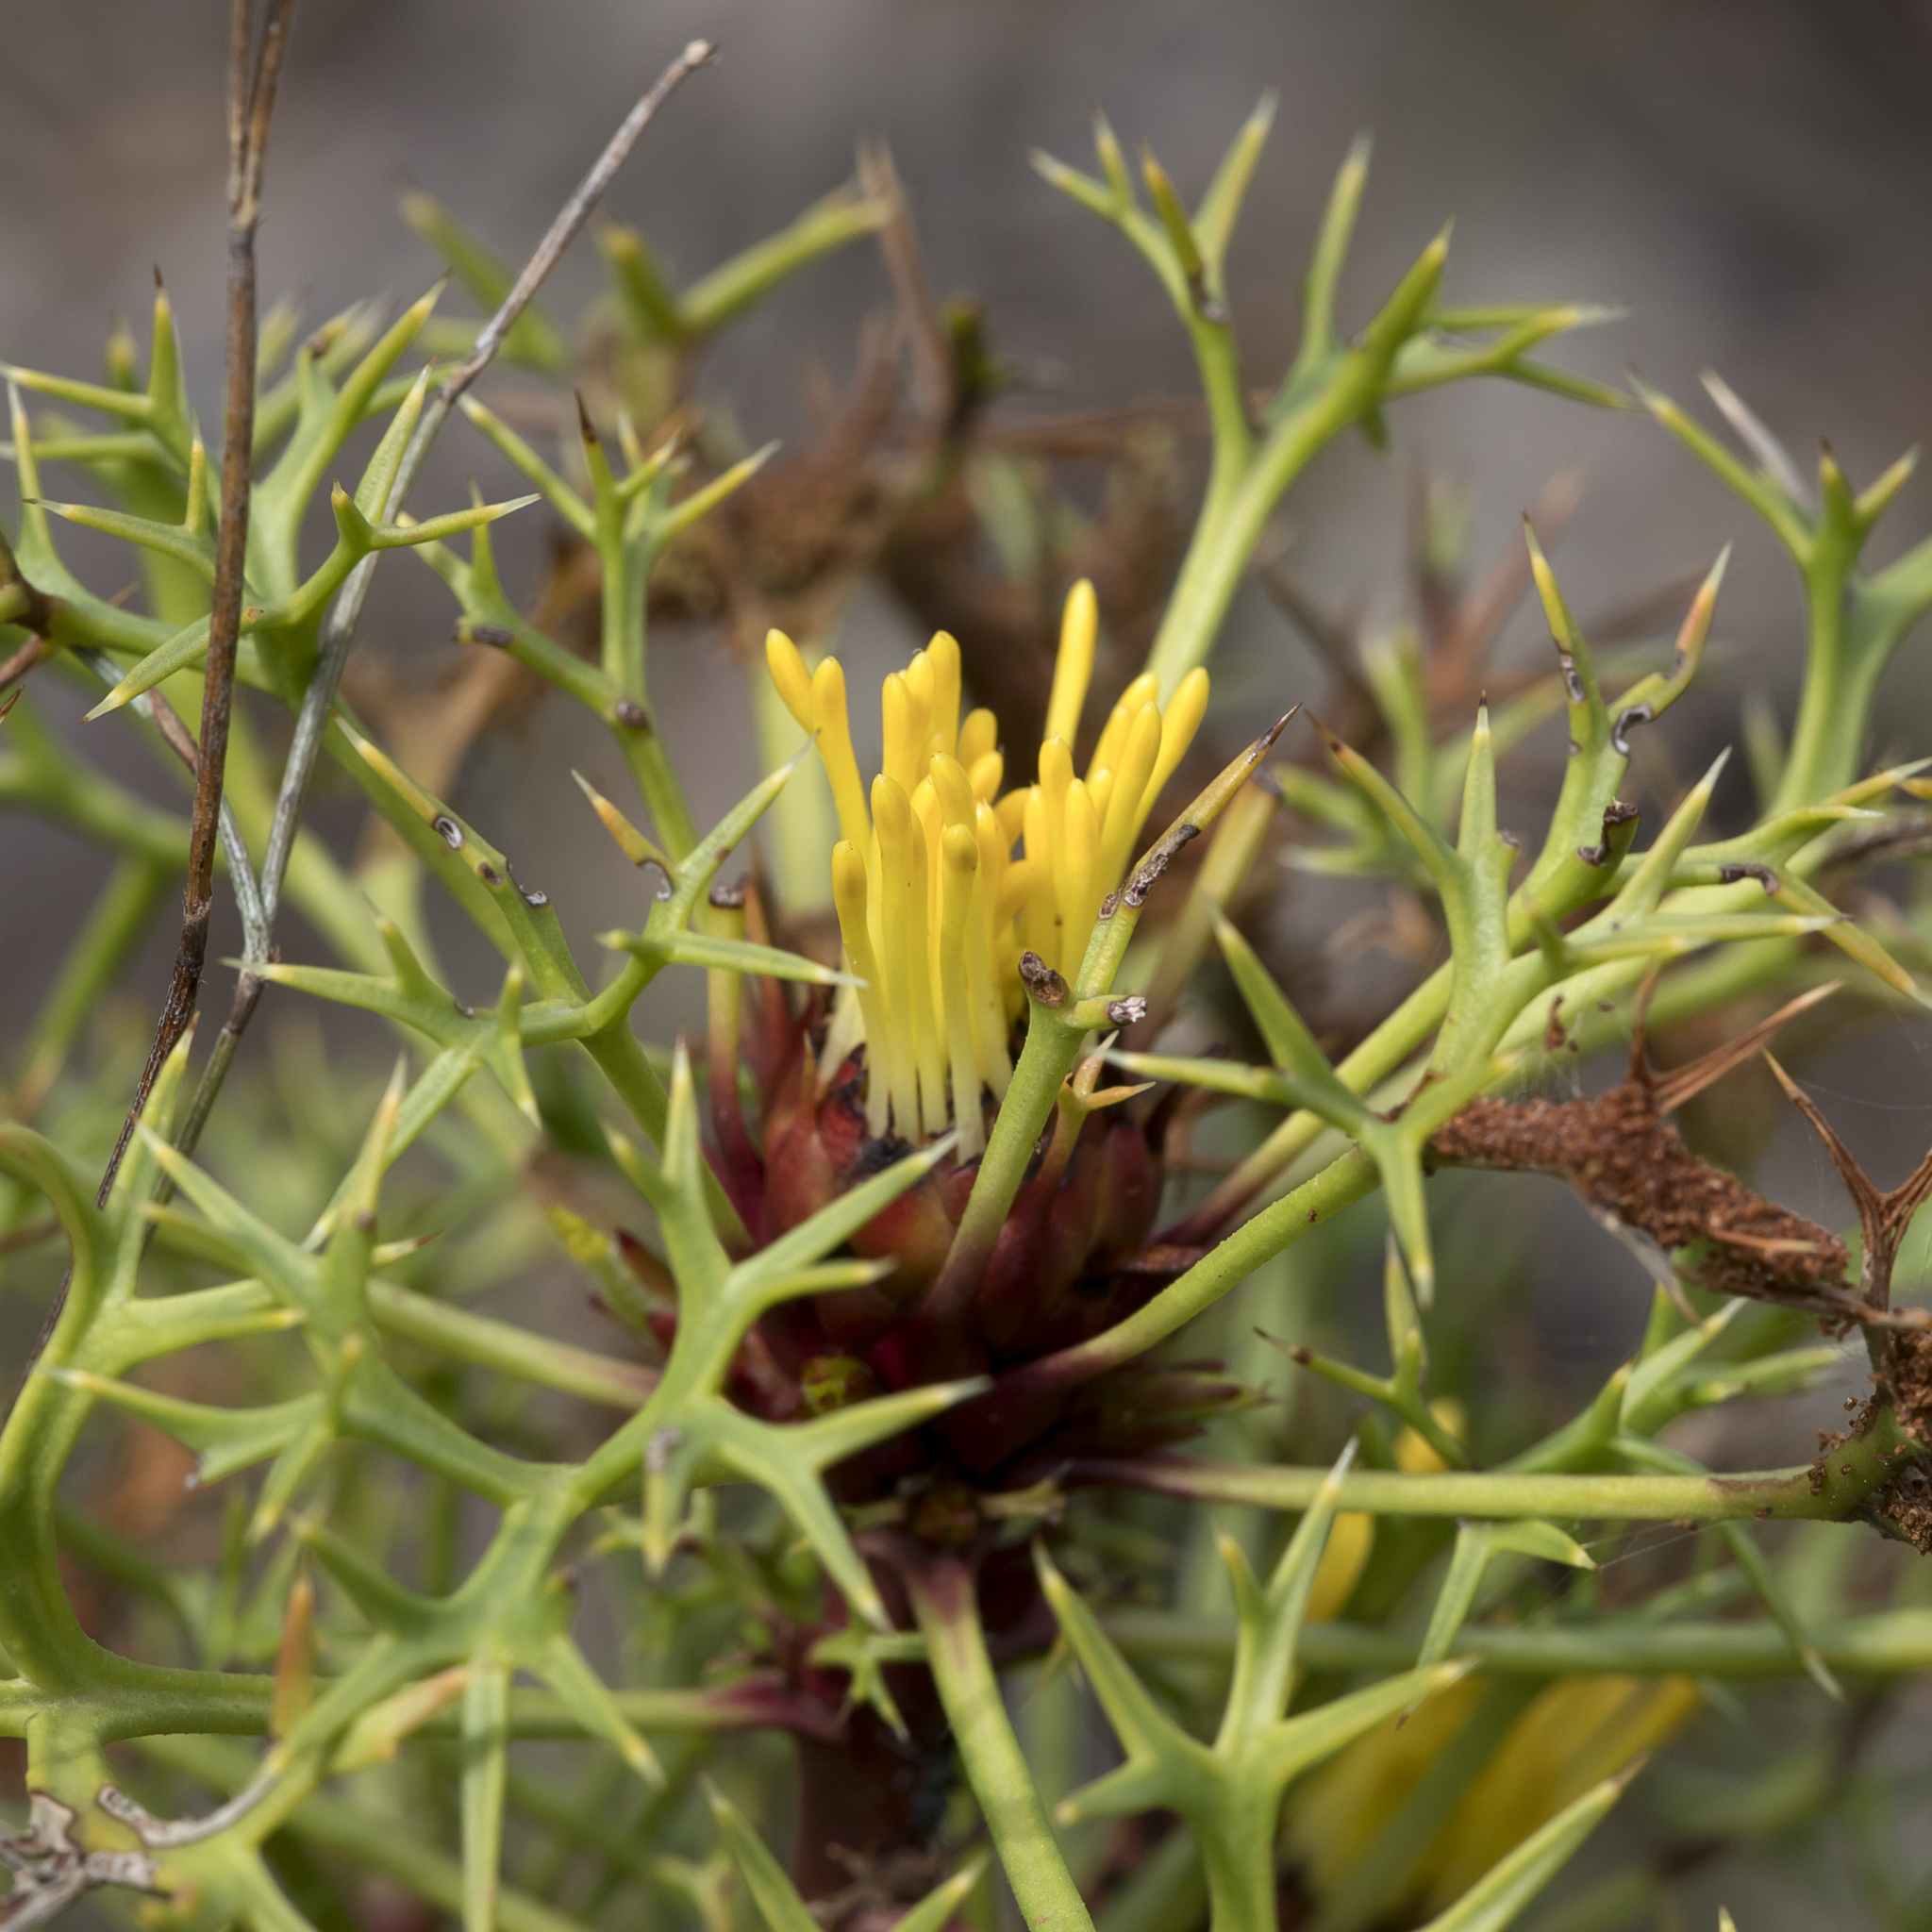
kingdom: Plantae
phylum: Tracheophyta
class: Magnoliopsida
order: Proteales
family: Proteaceae
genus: Isopogon
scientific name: Isopogon ceratophyllus
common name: Horny cone-bush
